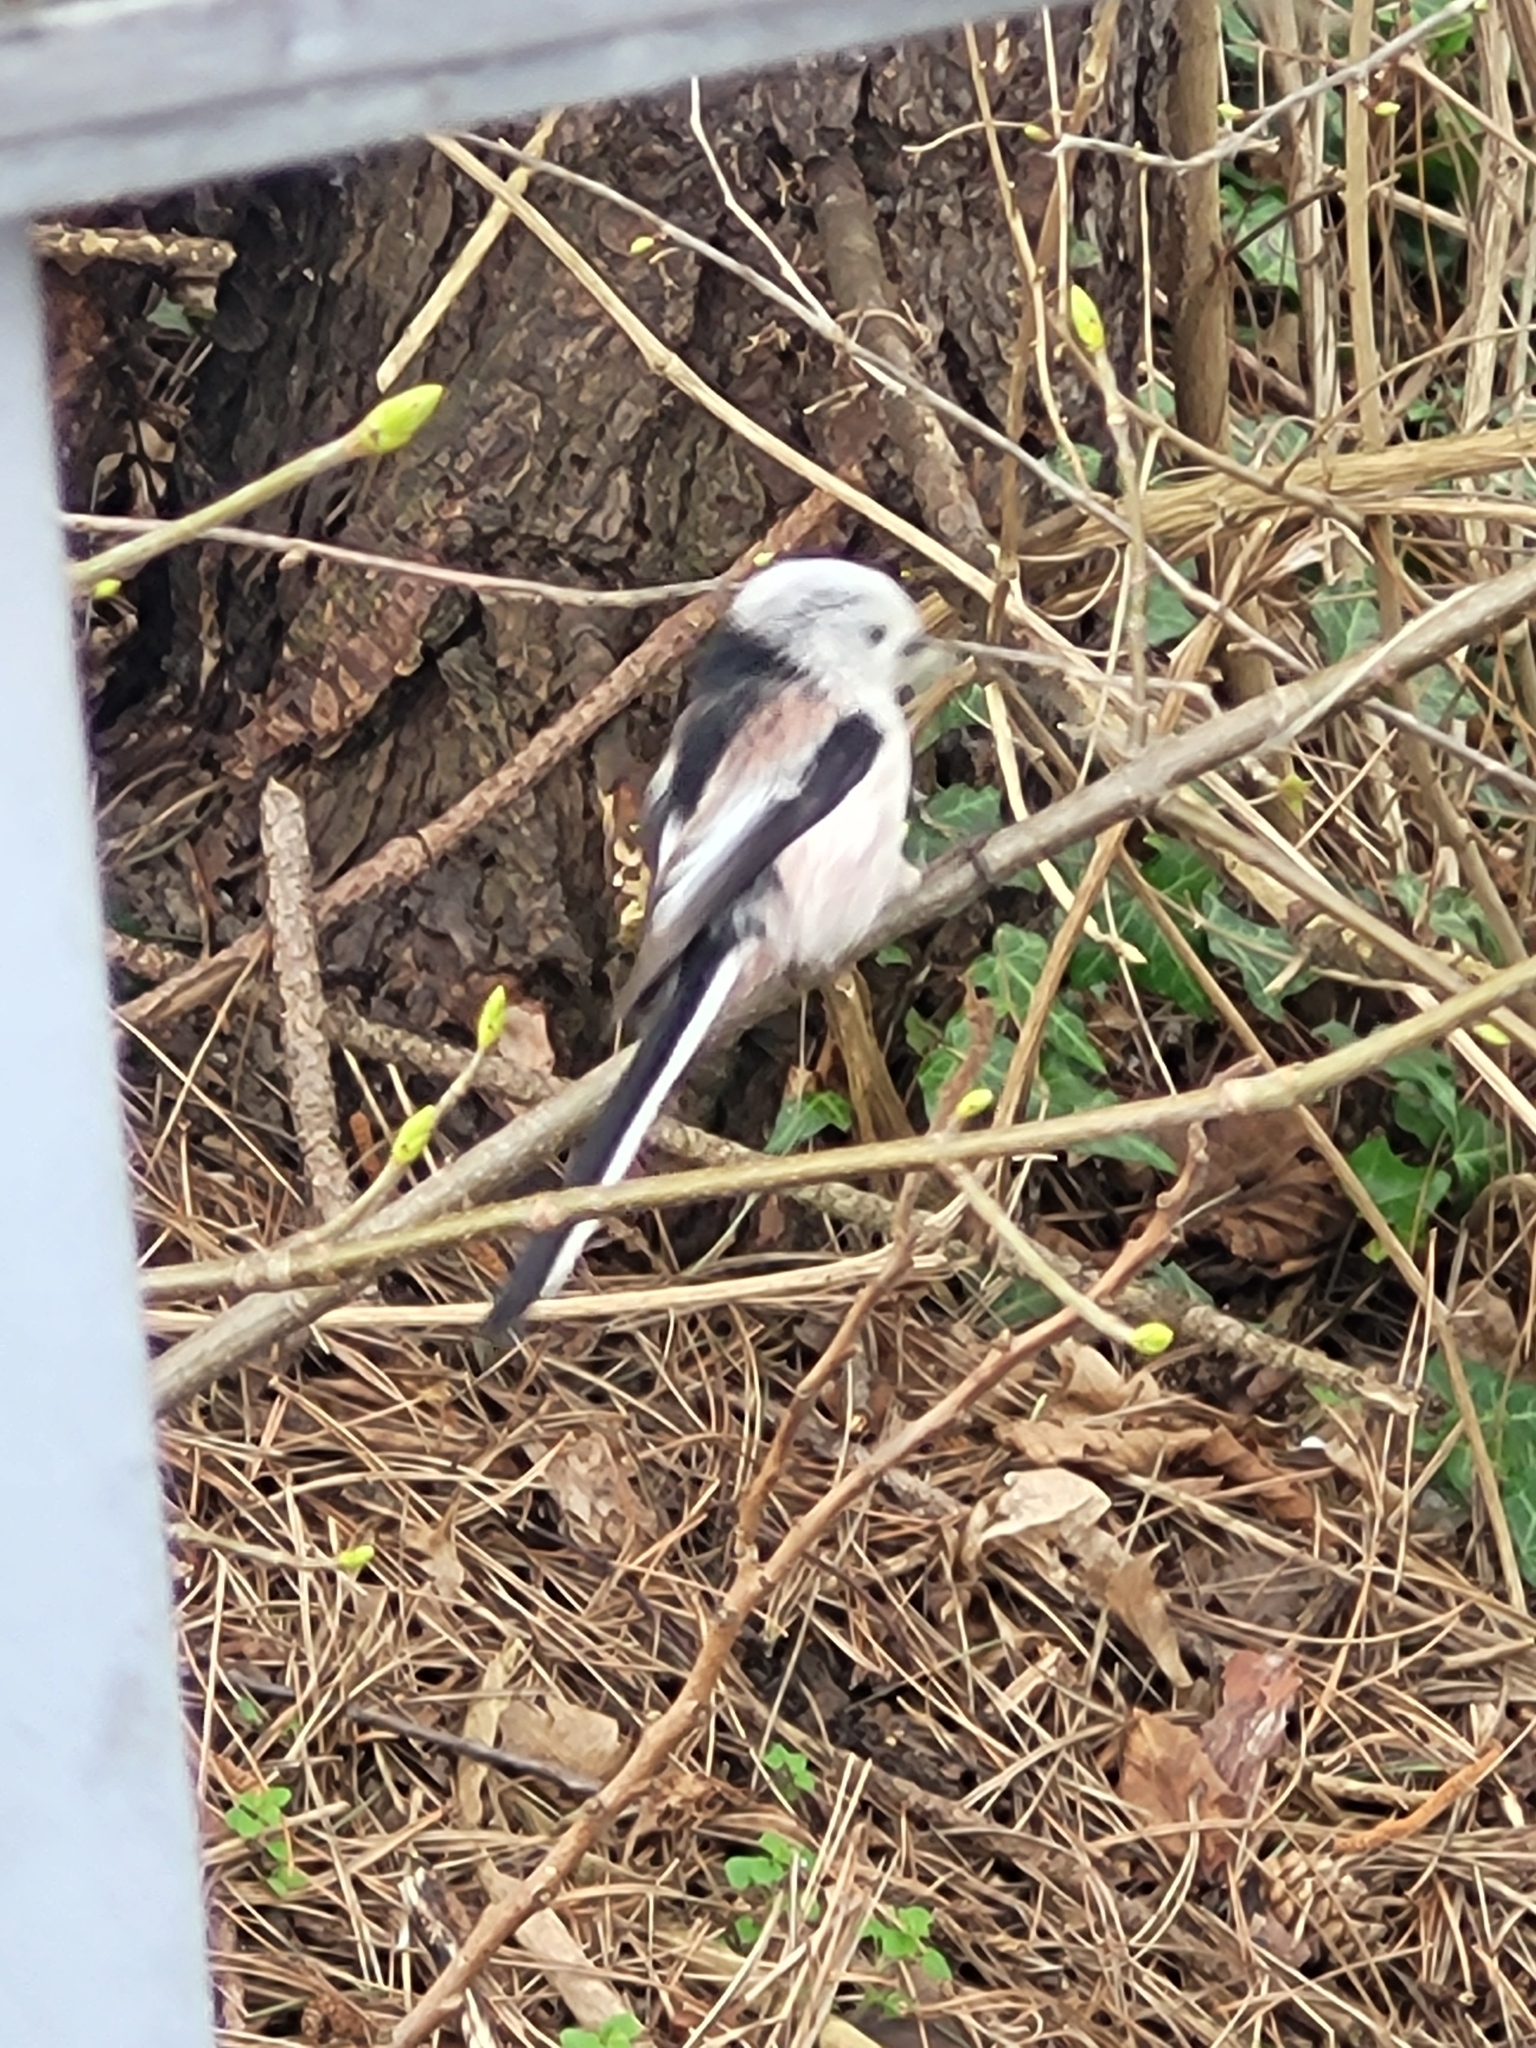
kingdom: Animalia
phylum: Chordata
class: Aves
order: Passeriformes
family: Aegithalidae
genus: Aegithalos
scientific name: Aegithalos caudatus
